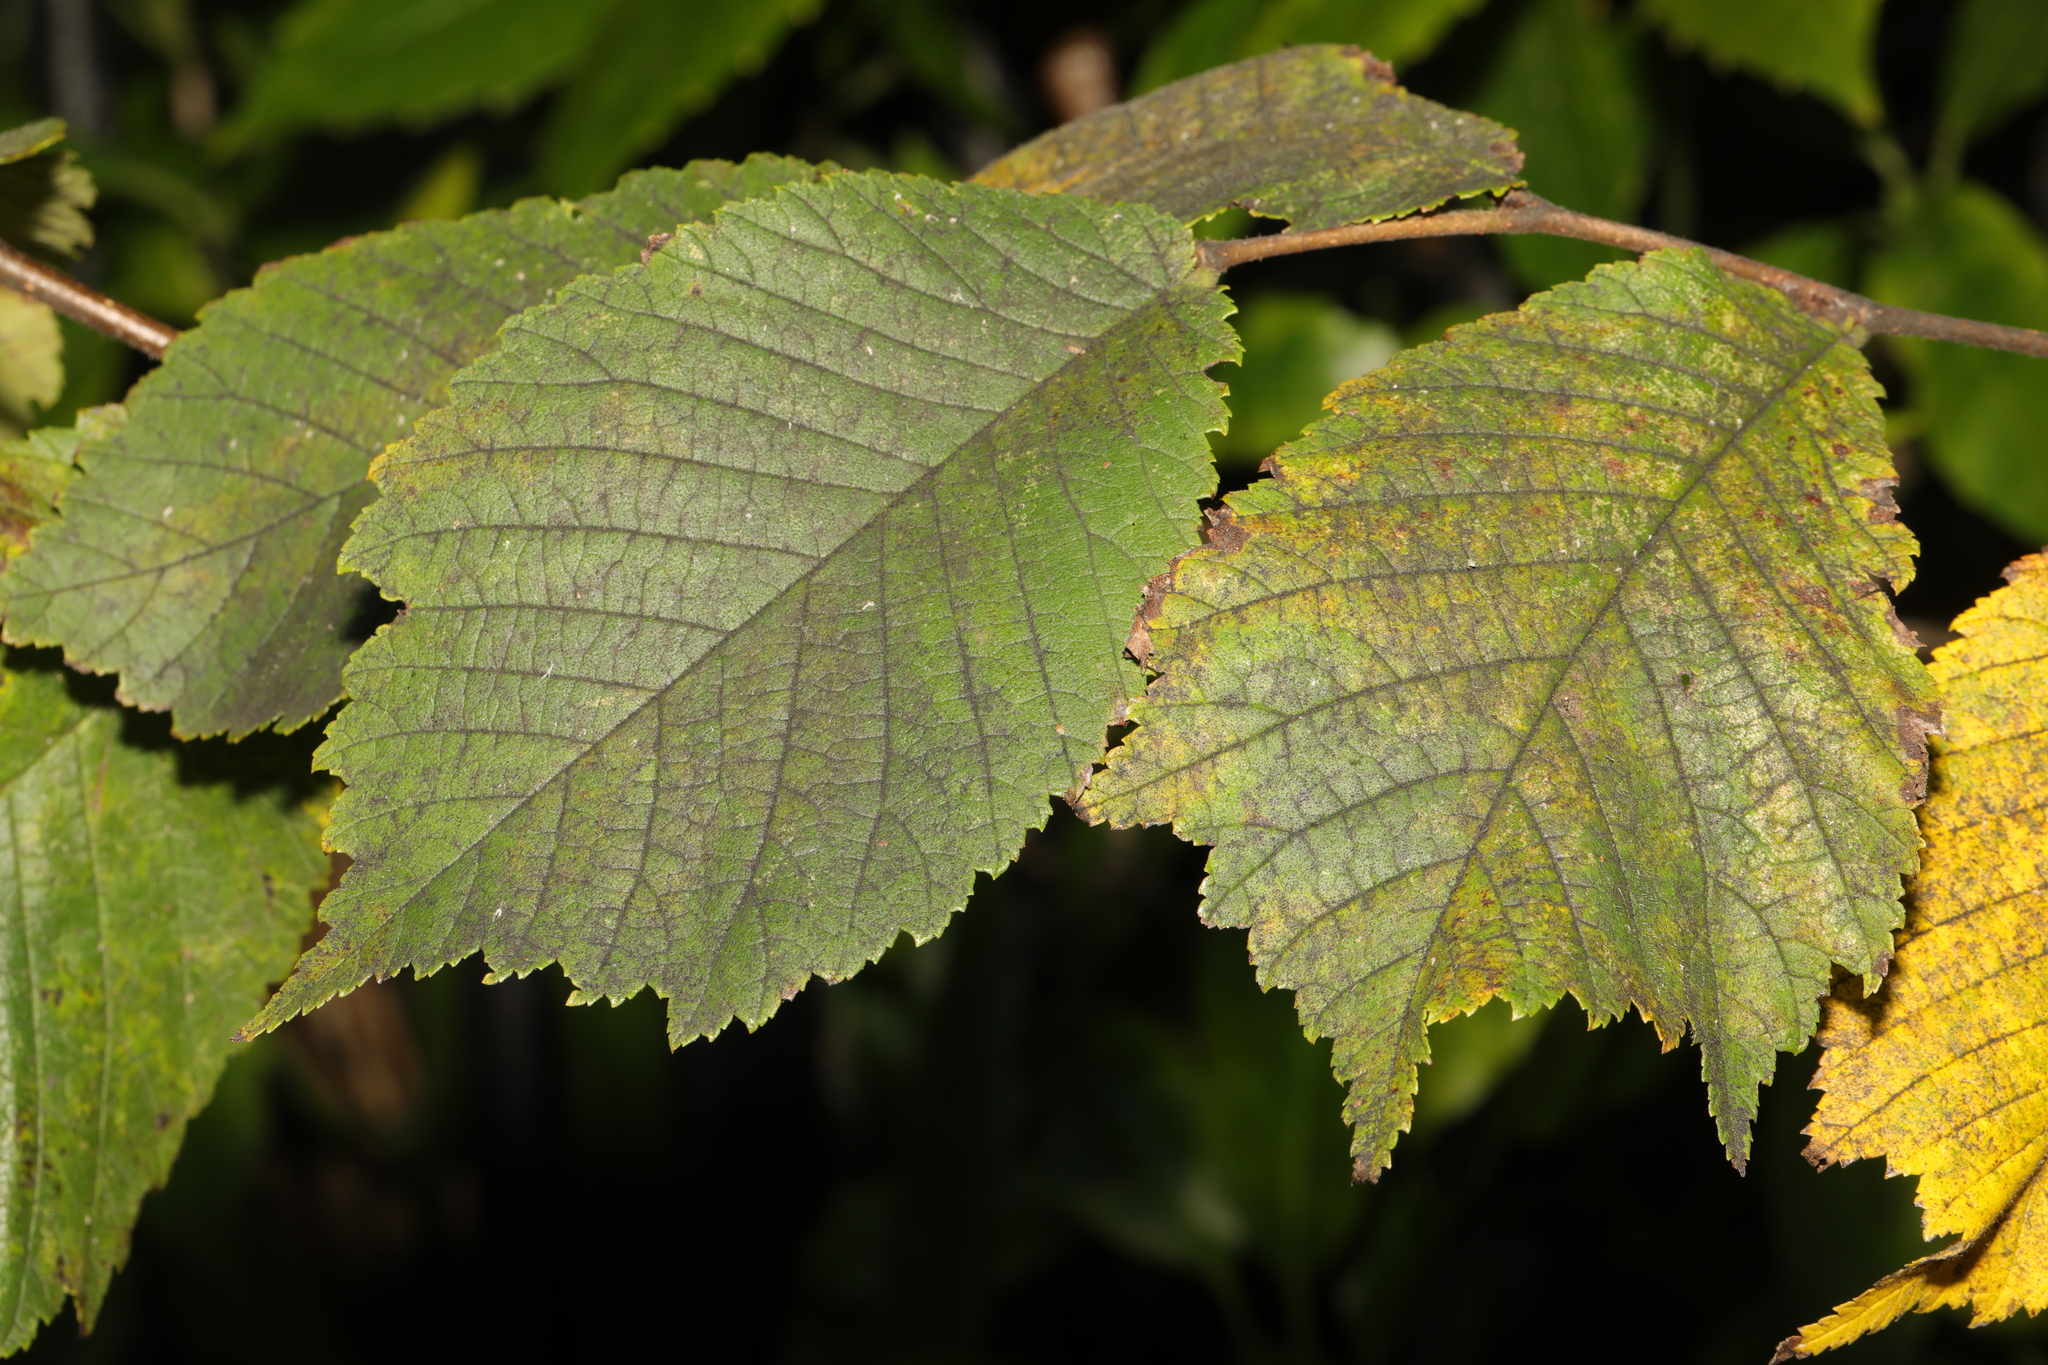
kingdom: Plantae
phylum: Tracheophyta
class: Magnoliopsida
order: Rosales
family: Ulmaceae
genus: Ulmus
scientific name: Ulmus glabra
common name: Wych elm
